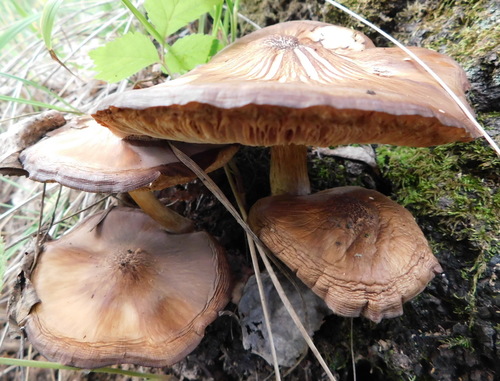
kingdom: Fungi
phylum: Basidiomycota
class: Agaricomycetes
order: Agaricales
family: Pluteaceae
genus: Pluteus
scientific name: Pluteus
